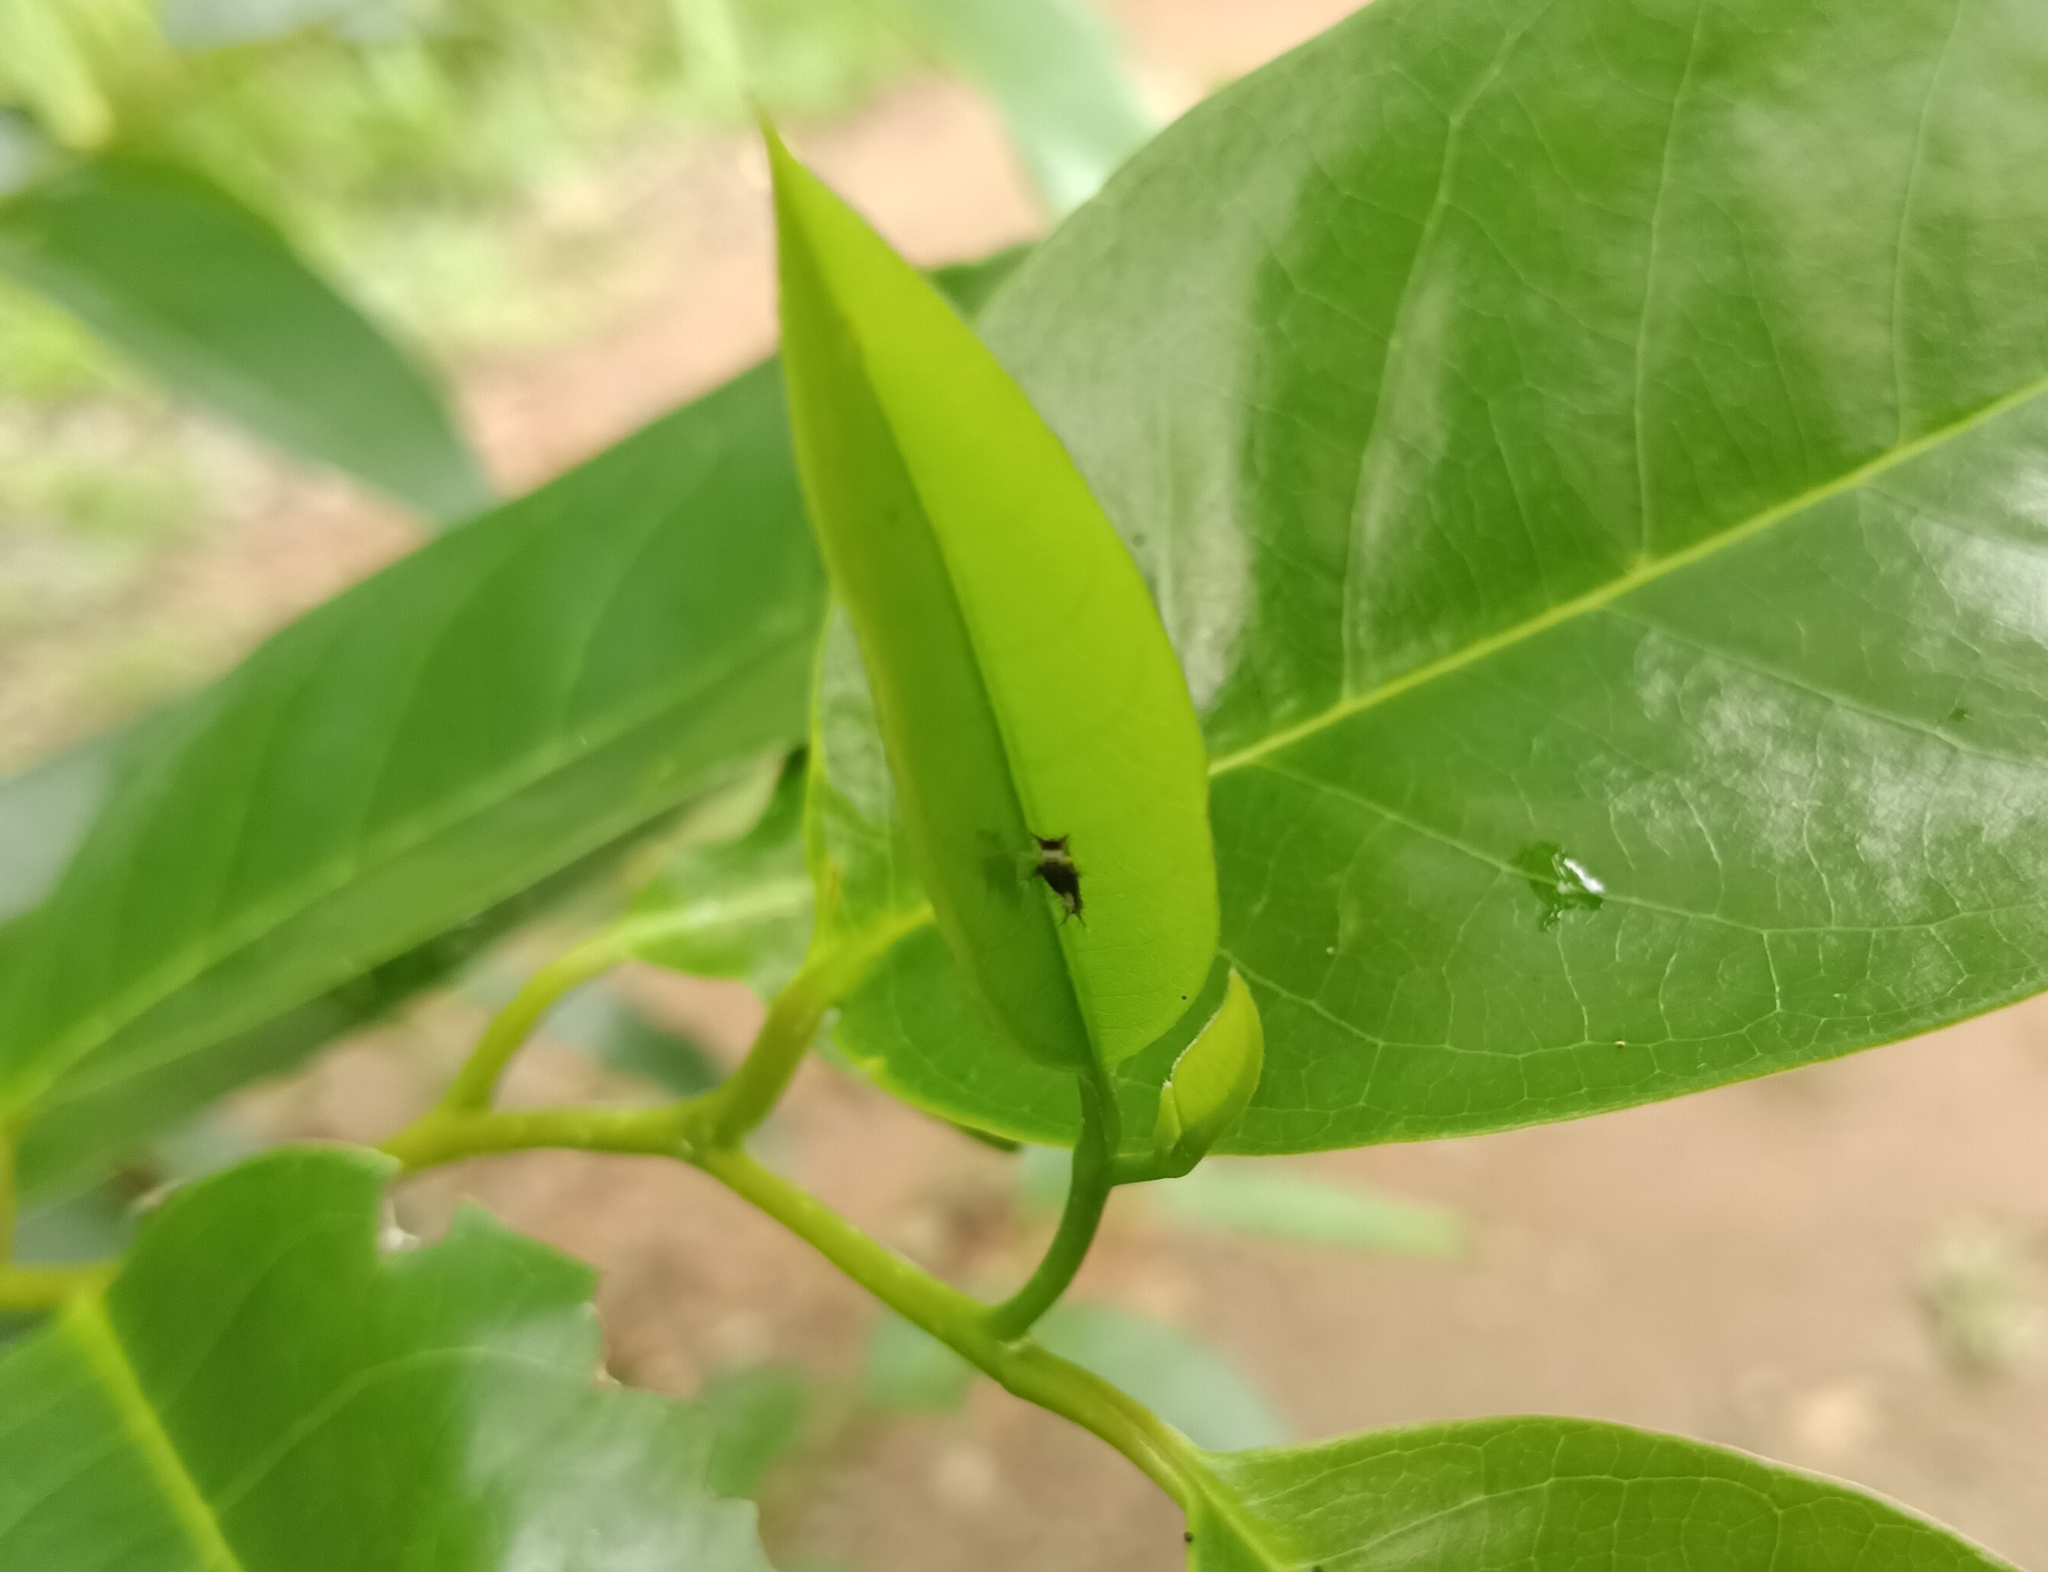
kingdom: Animalia
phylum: Arthropoda
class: Insecta
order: Lepidoptera
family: Papilionidae
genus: Graphium
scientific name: Graphium agamemnon
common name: Tailed jay
